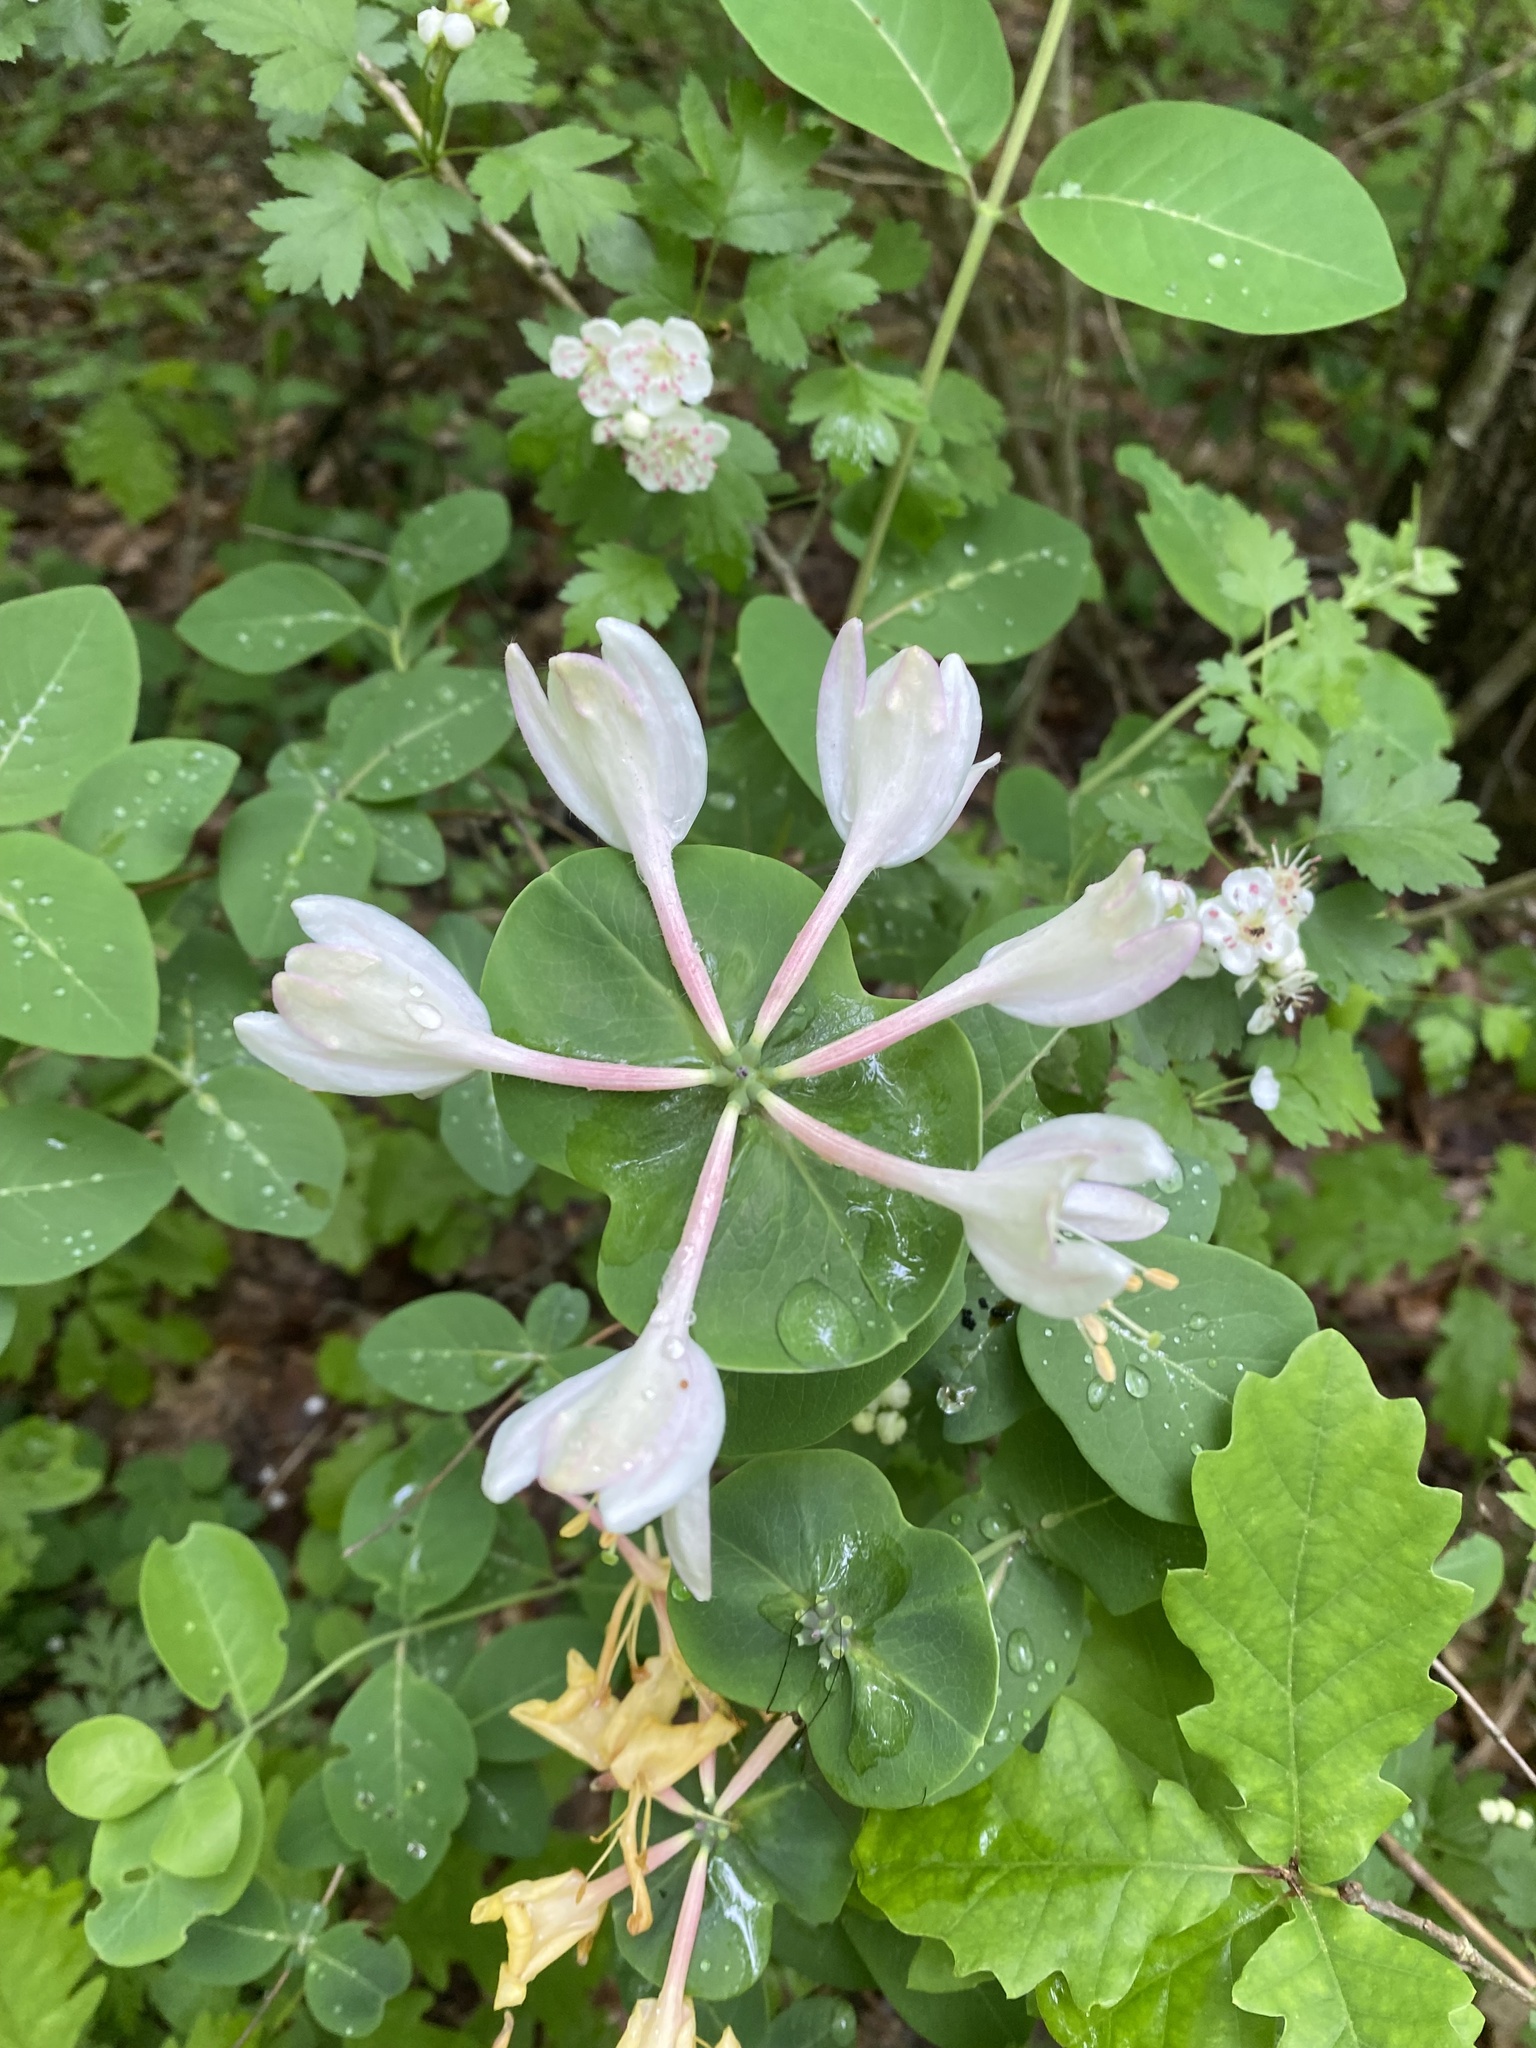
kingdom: Plantae
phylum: Tracheophyta
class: Magnoliopsida
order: Dipsacales
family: Caprifoliaceae
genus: Lonicera
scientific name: Lonicera caprifolium
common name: Perfoliate honeysuckle
